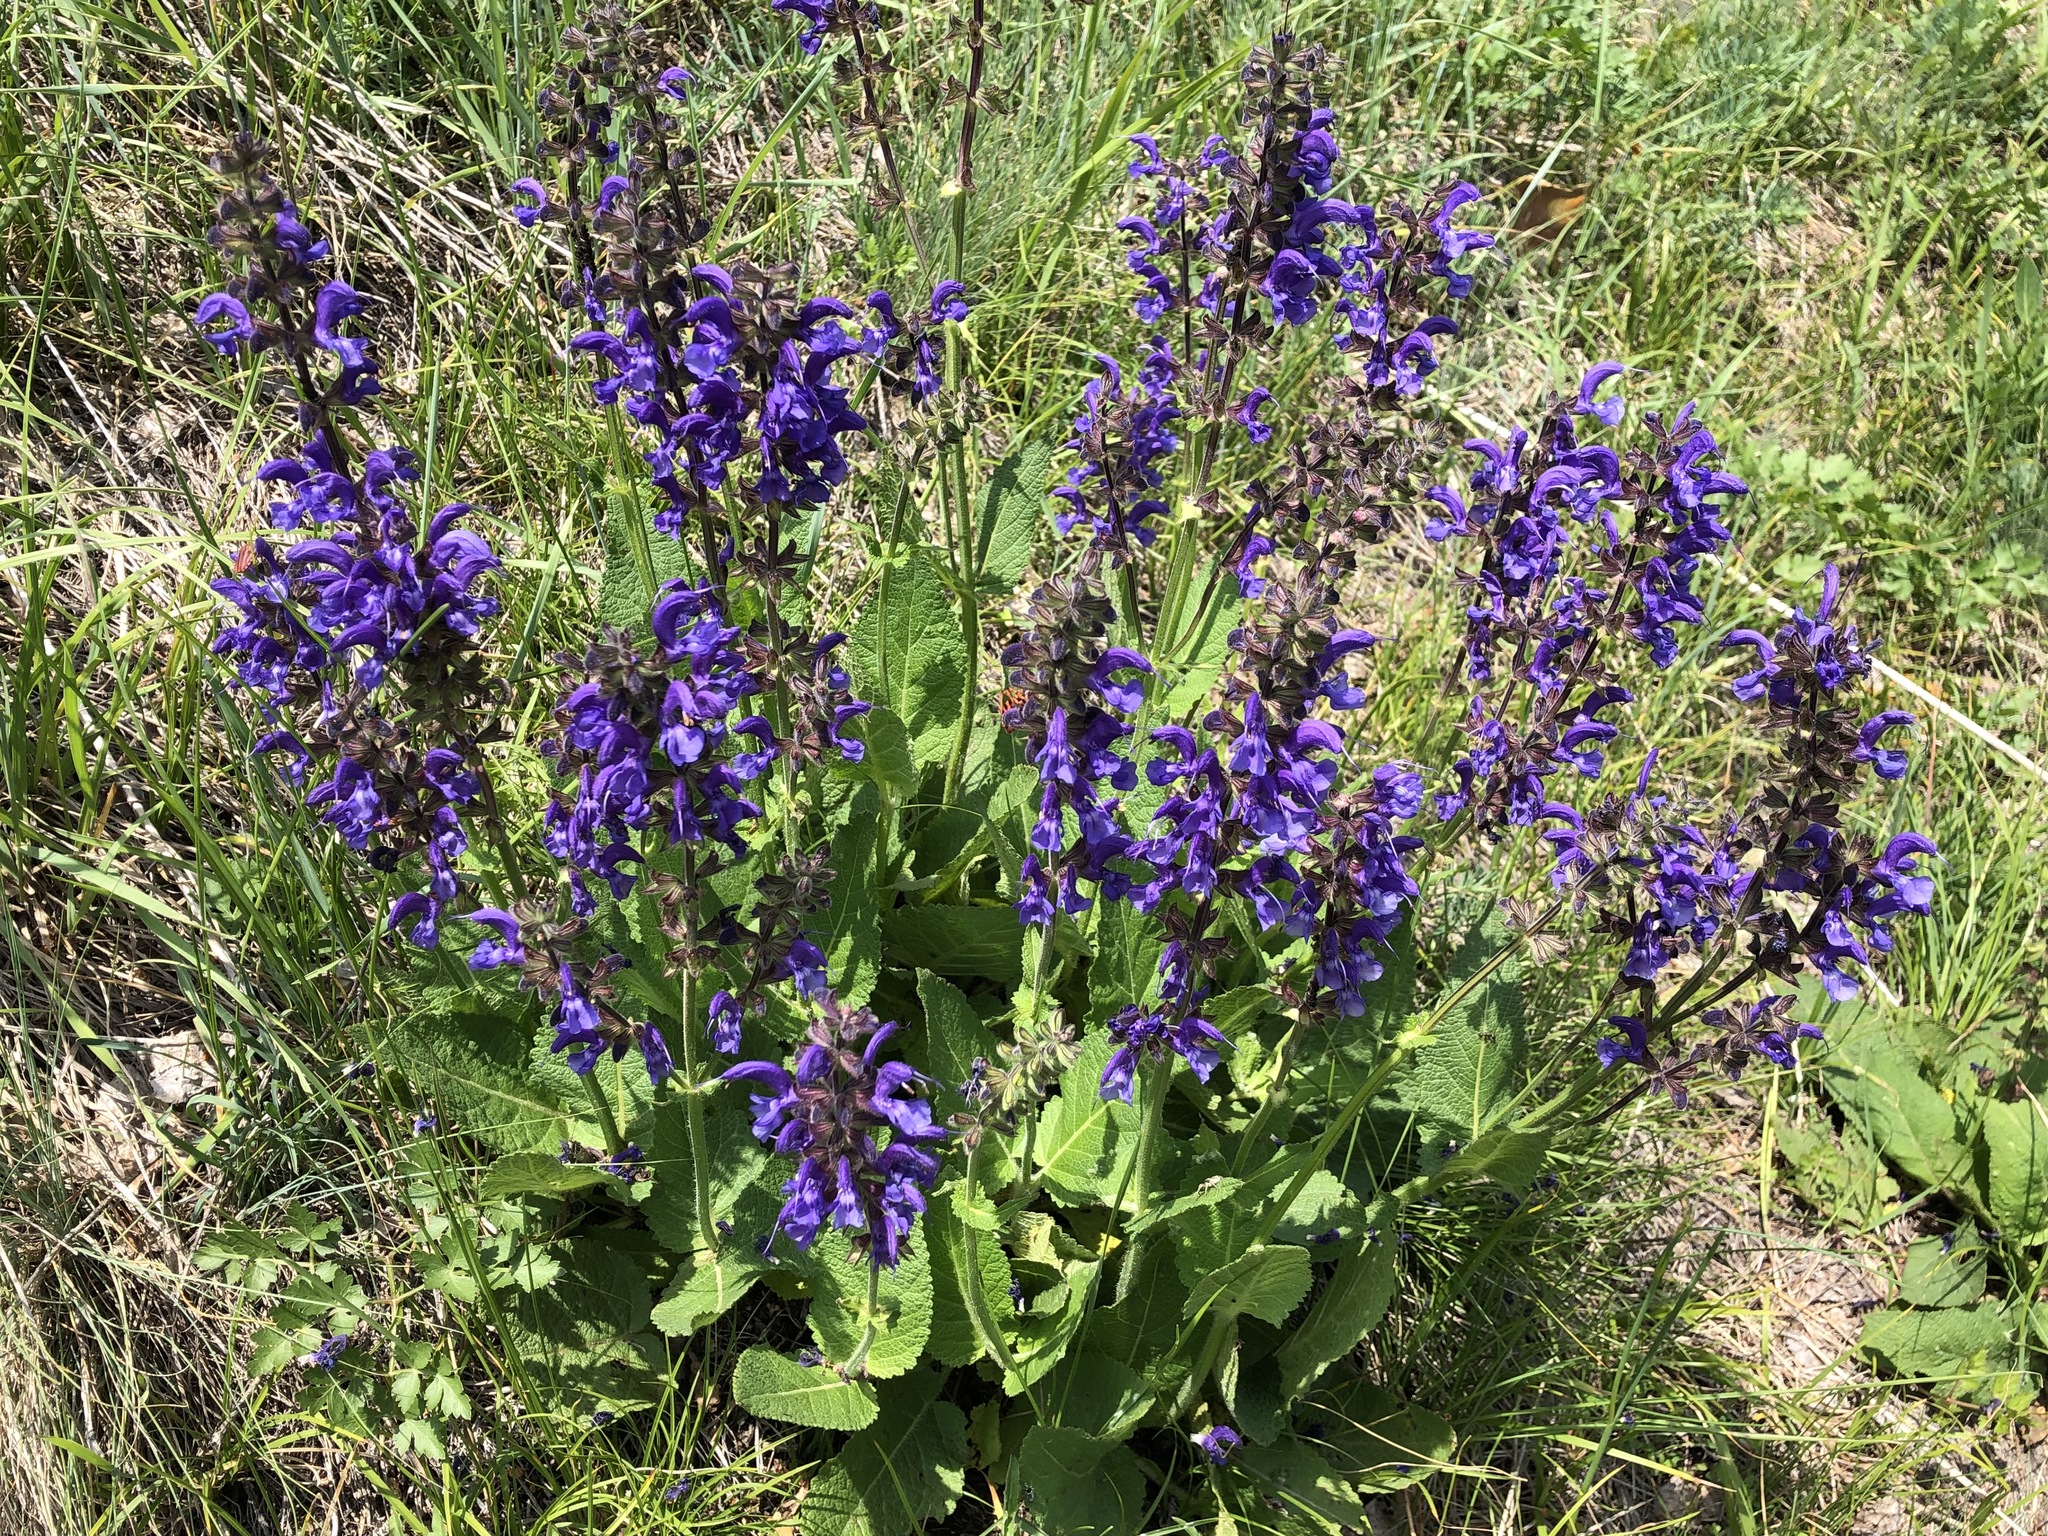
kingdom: Plantae
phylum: Tracheophyta
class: Magnoliopsida
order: Lamiales
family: Lamiaceae
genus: Salvia
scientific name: Salvia pratensis
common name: Meadow sage
